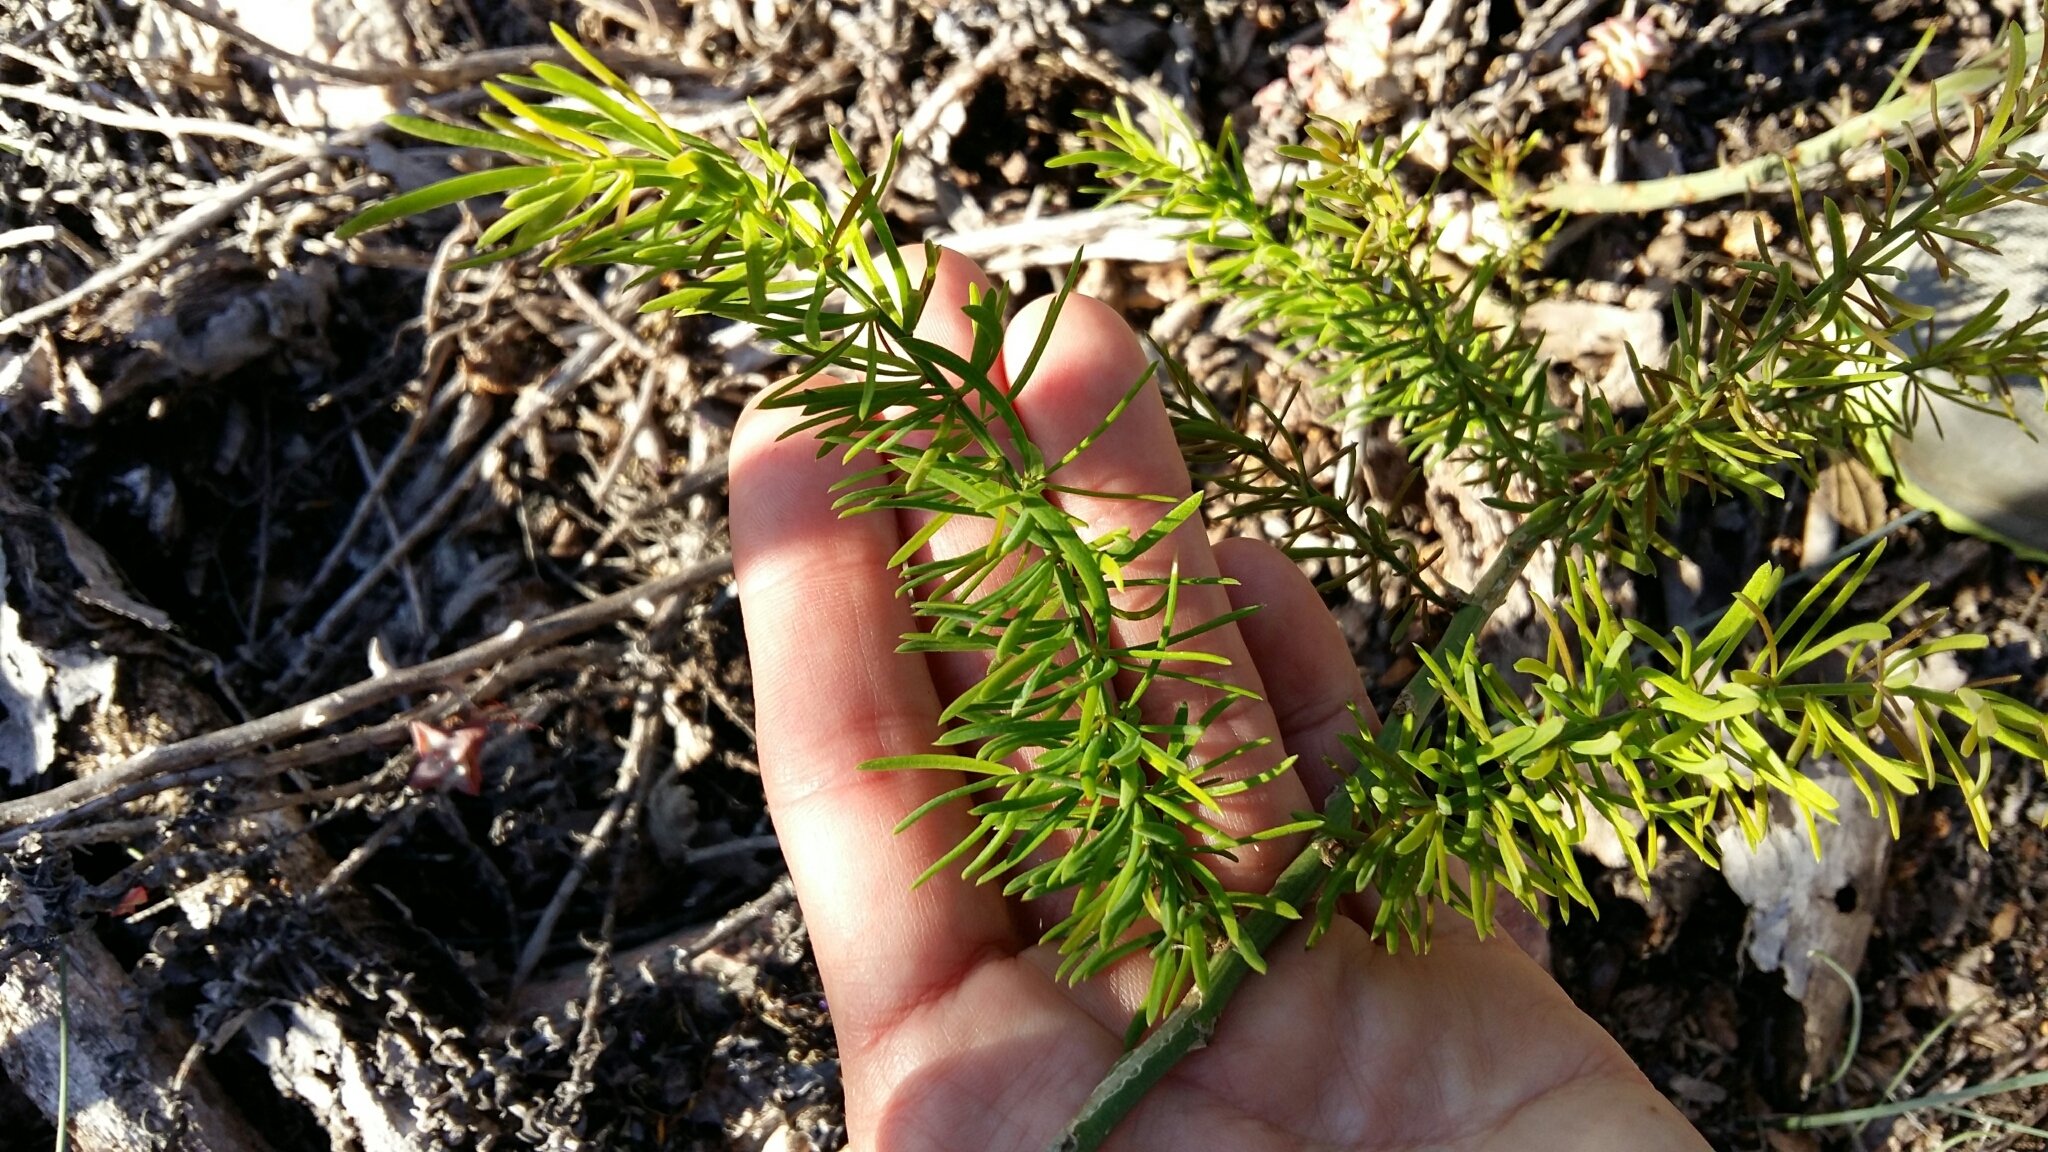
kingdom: Plantae
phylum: Tracheophyta
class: Liliopsida
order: Asparagales
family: Asparagaceae
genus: Asparagus
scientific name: Asparagus aethiopicus
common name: Sprenger's asparagus fern
